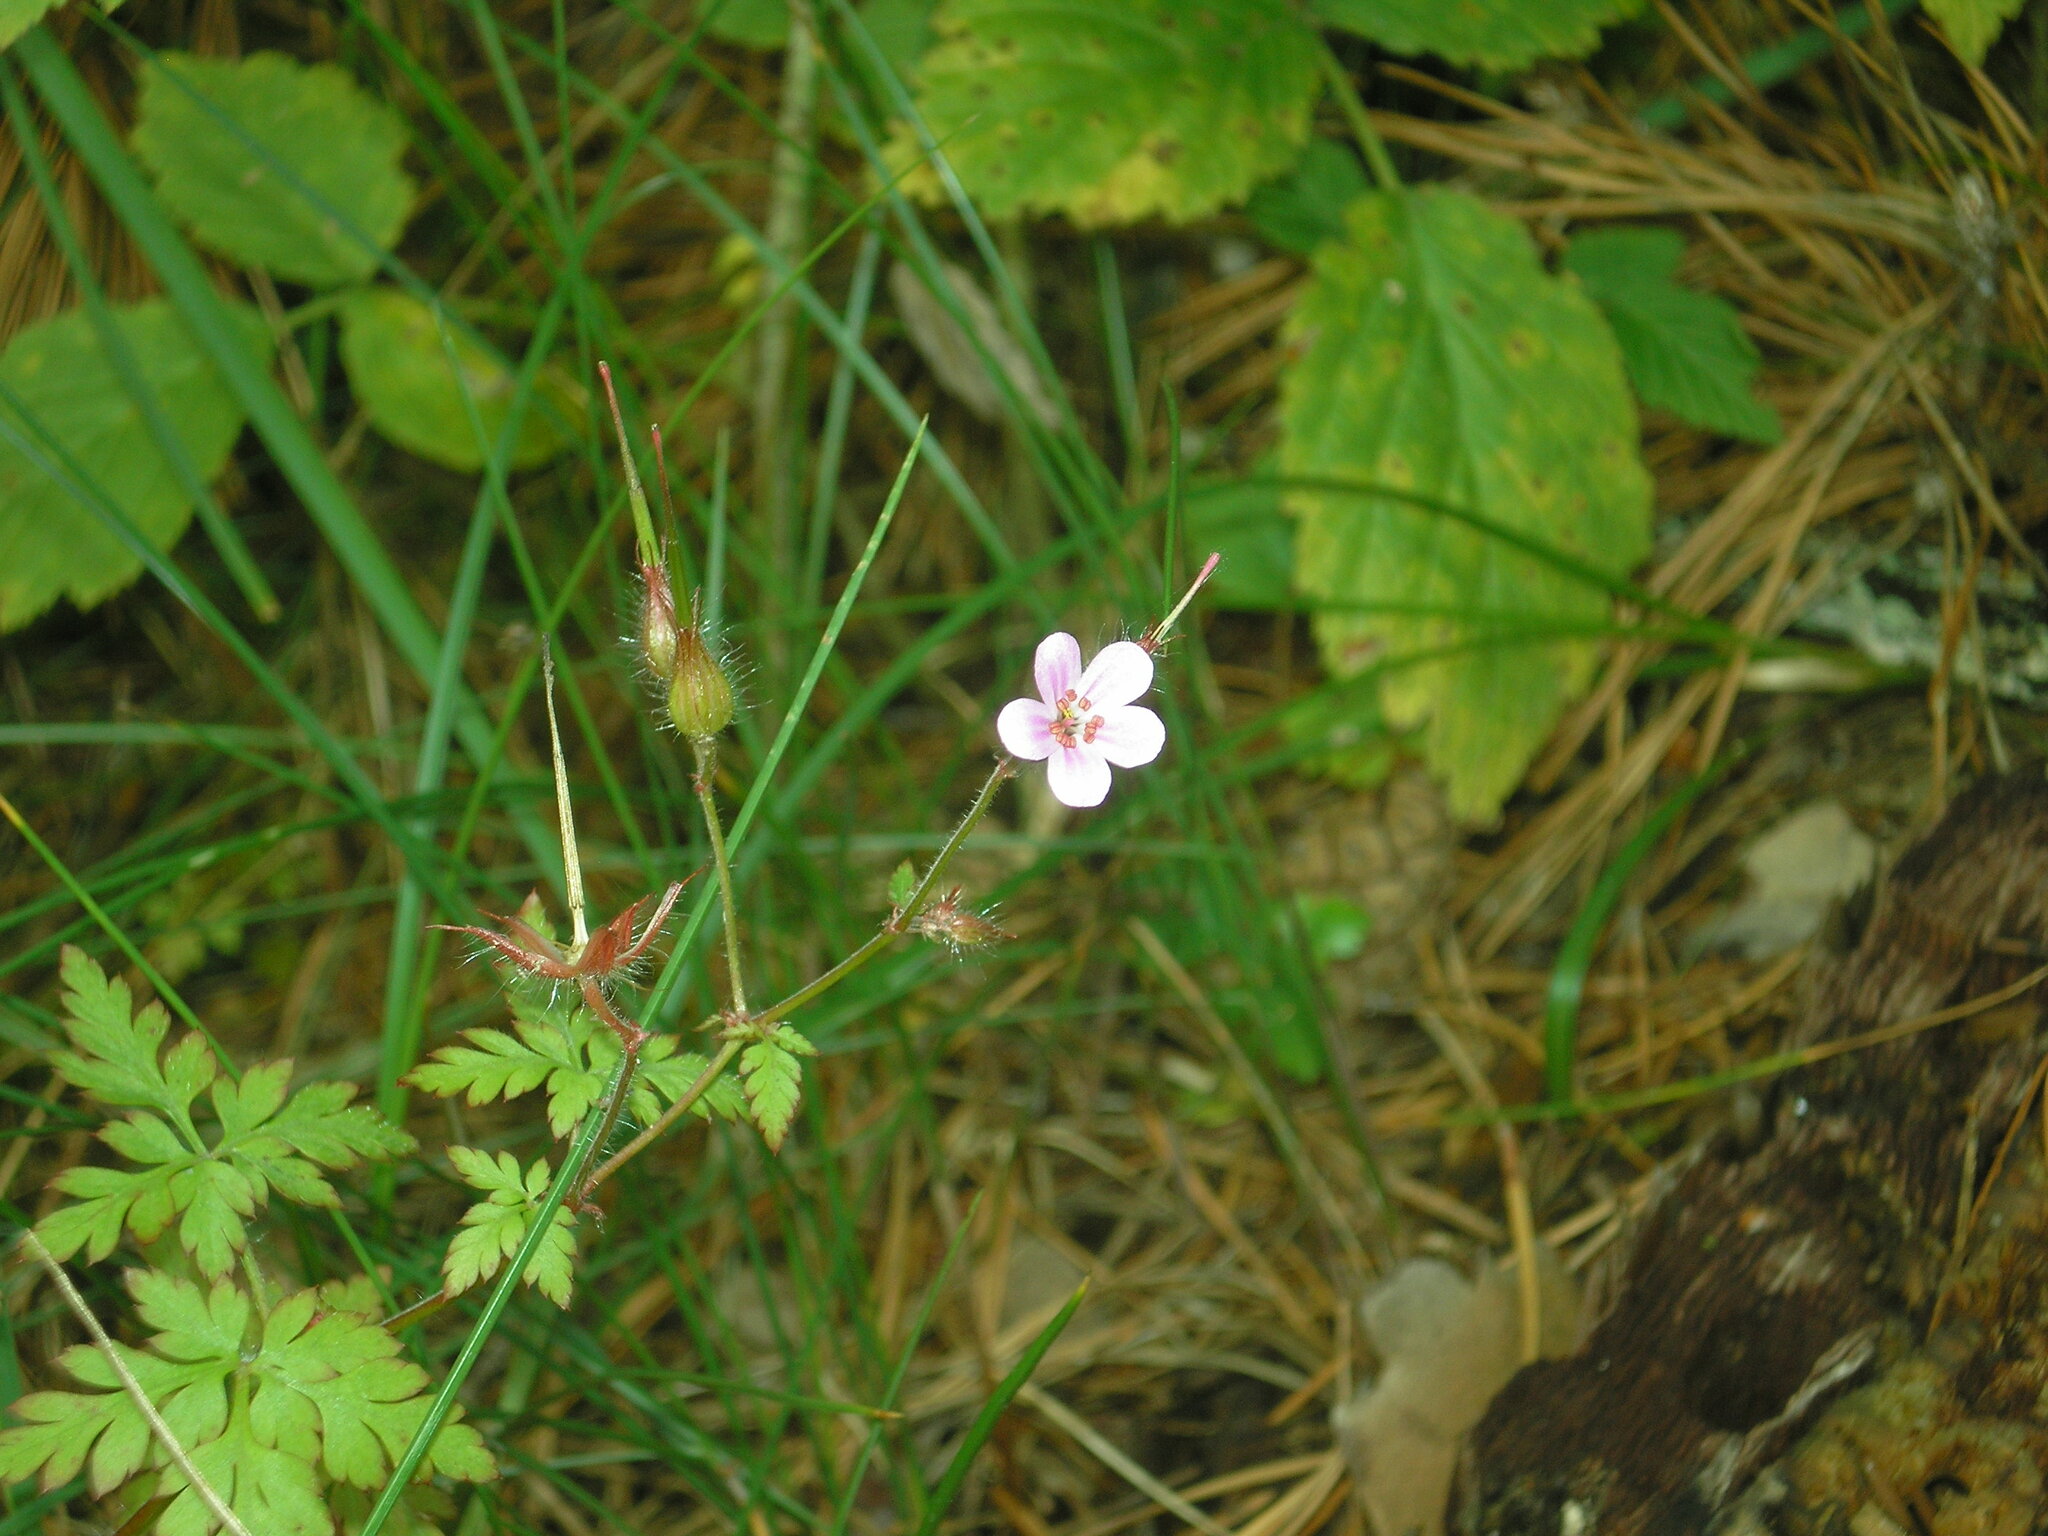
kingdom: Plantae
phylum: Tracheophyta
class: Magnoliopsida
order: Geraniales
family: Geraniaceae
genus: Geranium
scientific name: Geranium robertianum
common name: Herb-robert
